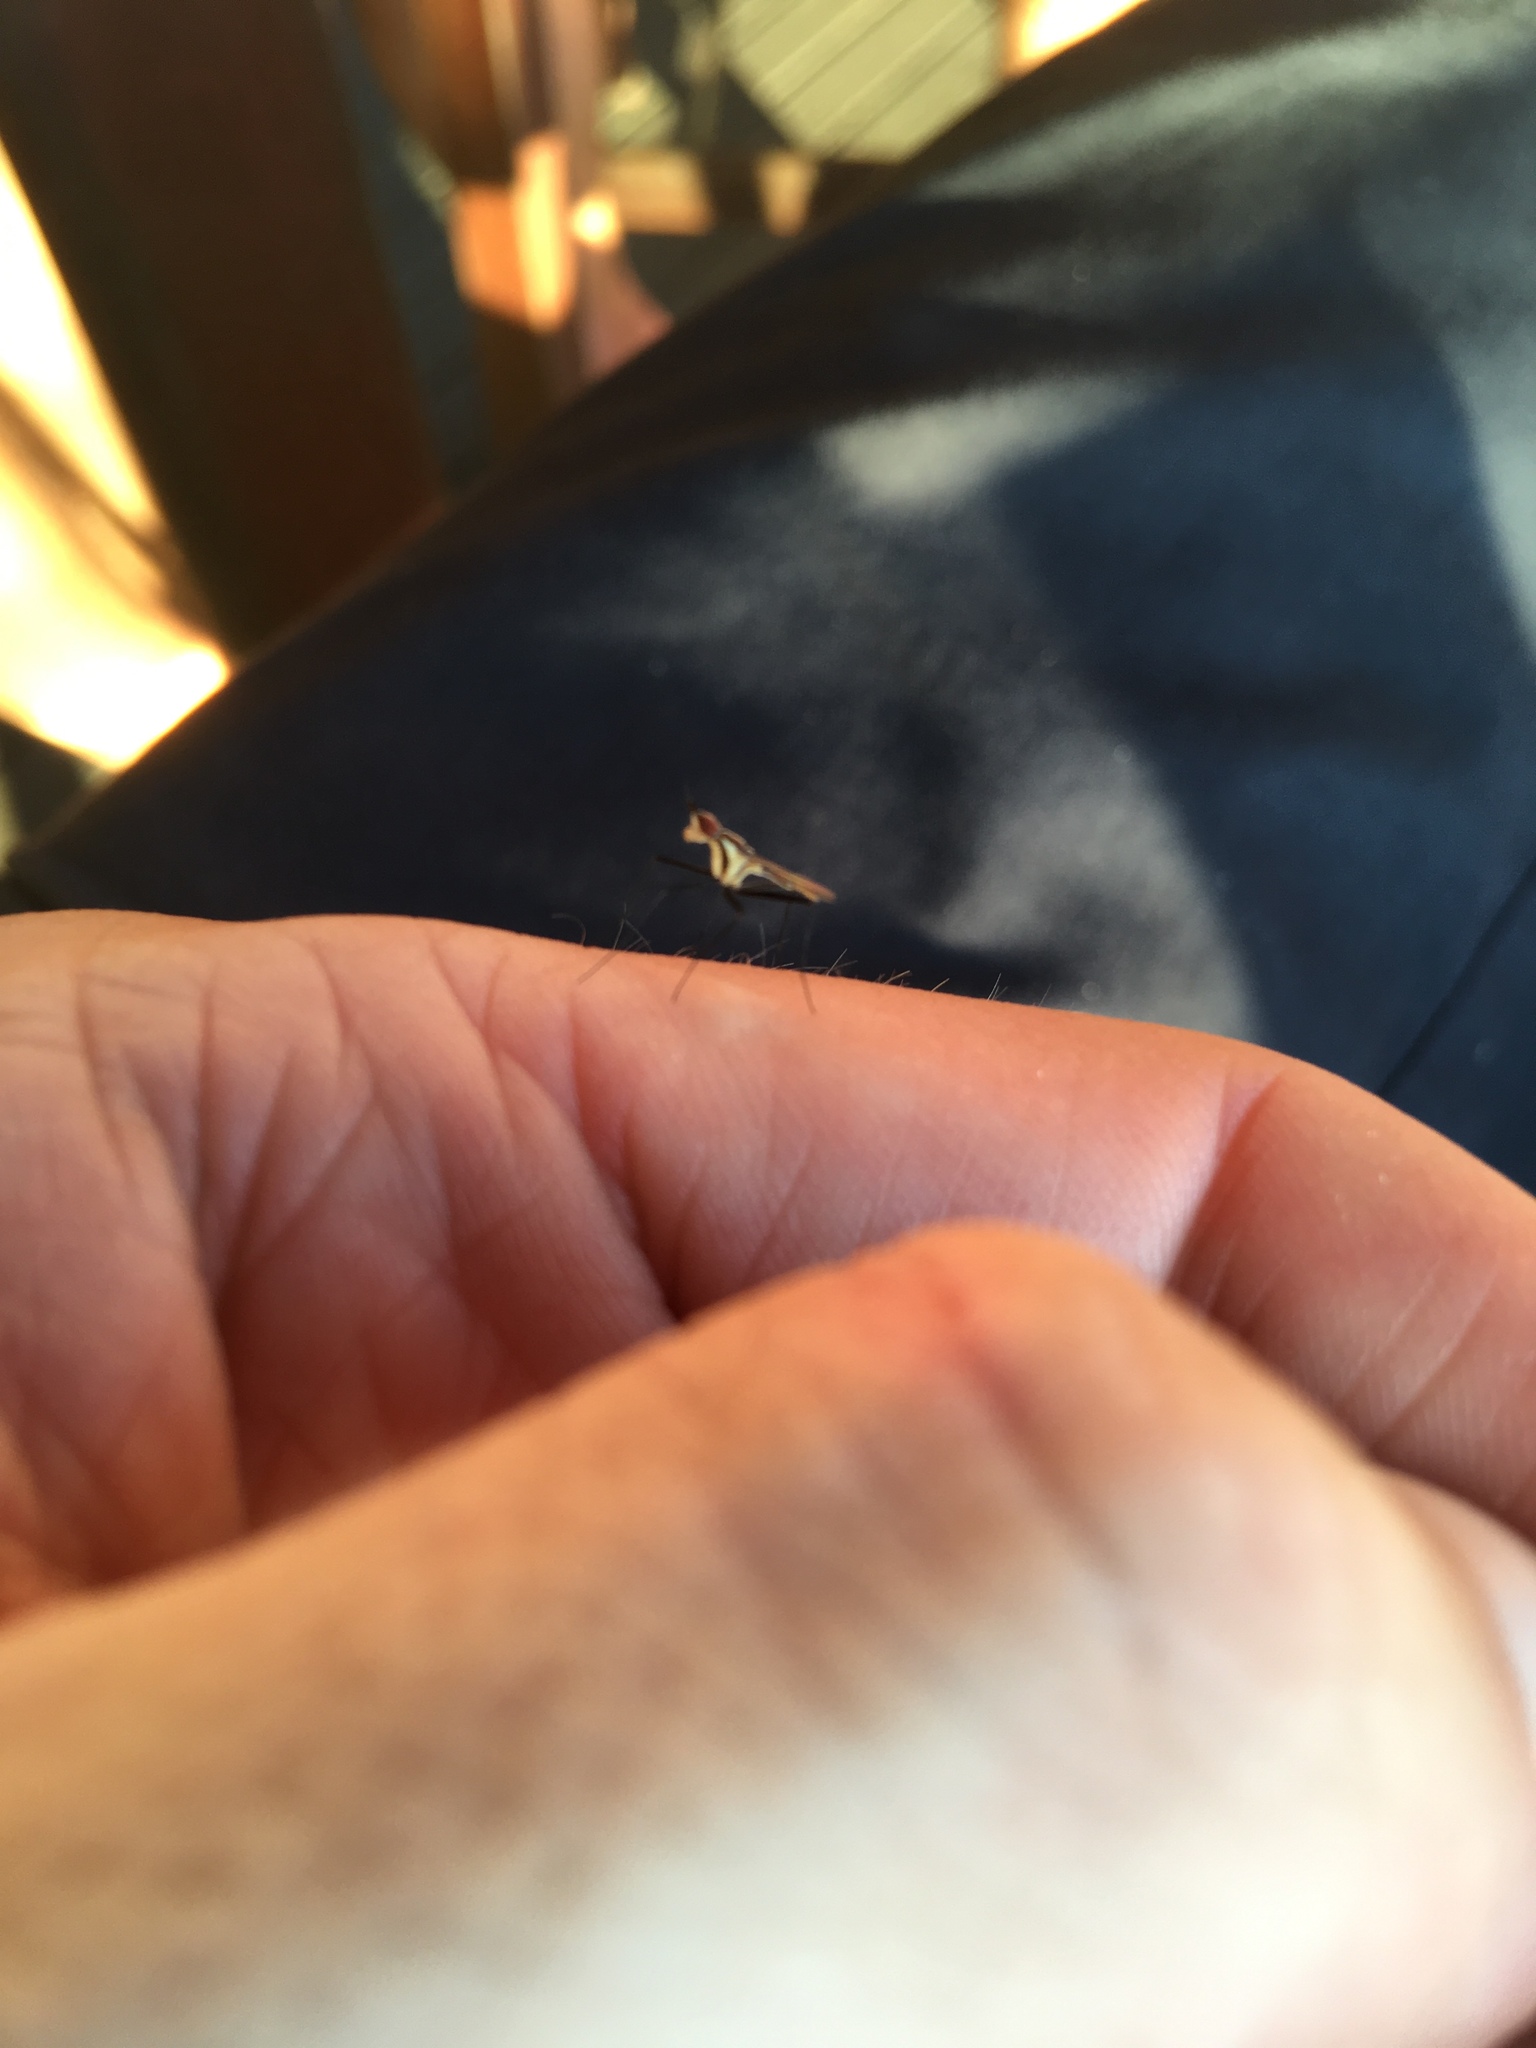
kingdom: Animalia
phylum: Arthropoda
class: Insecta
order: Diptera
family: Neriidae
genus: Telostylinus
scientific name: Telostylinus lineolatus
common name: Banana stalk fly
